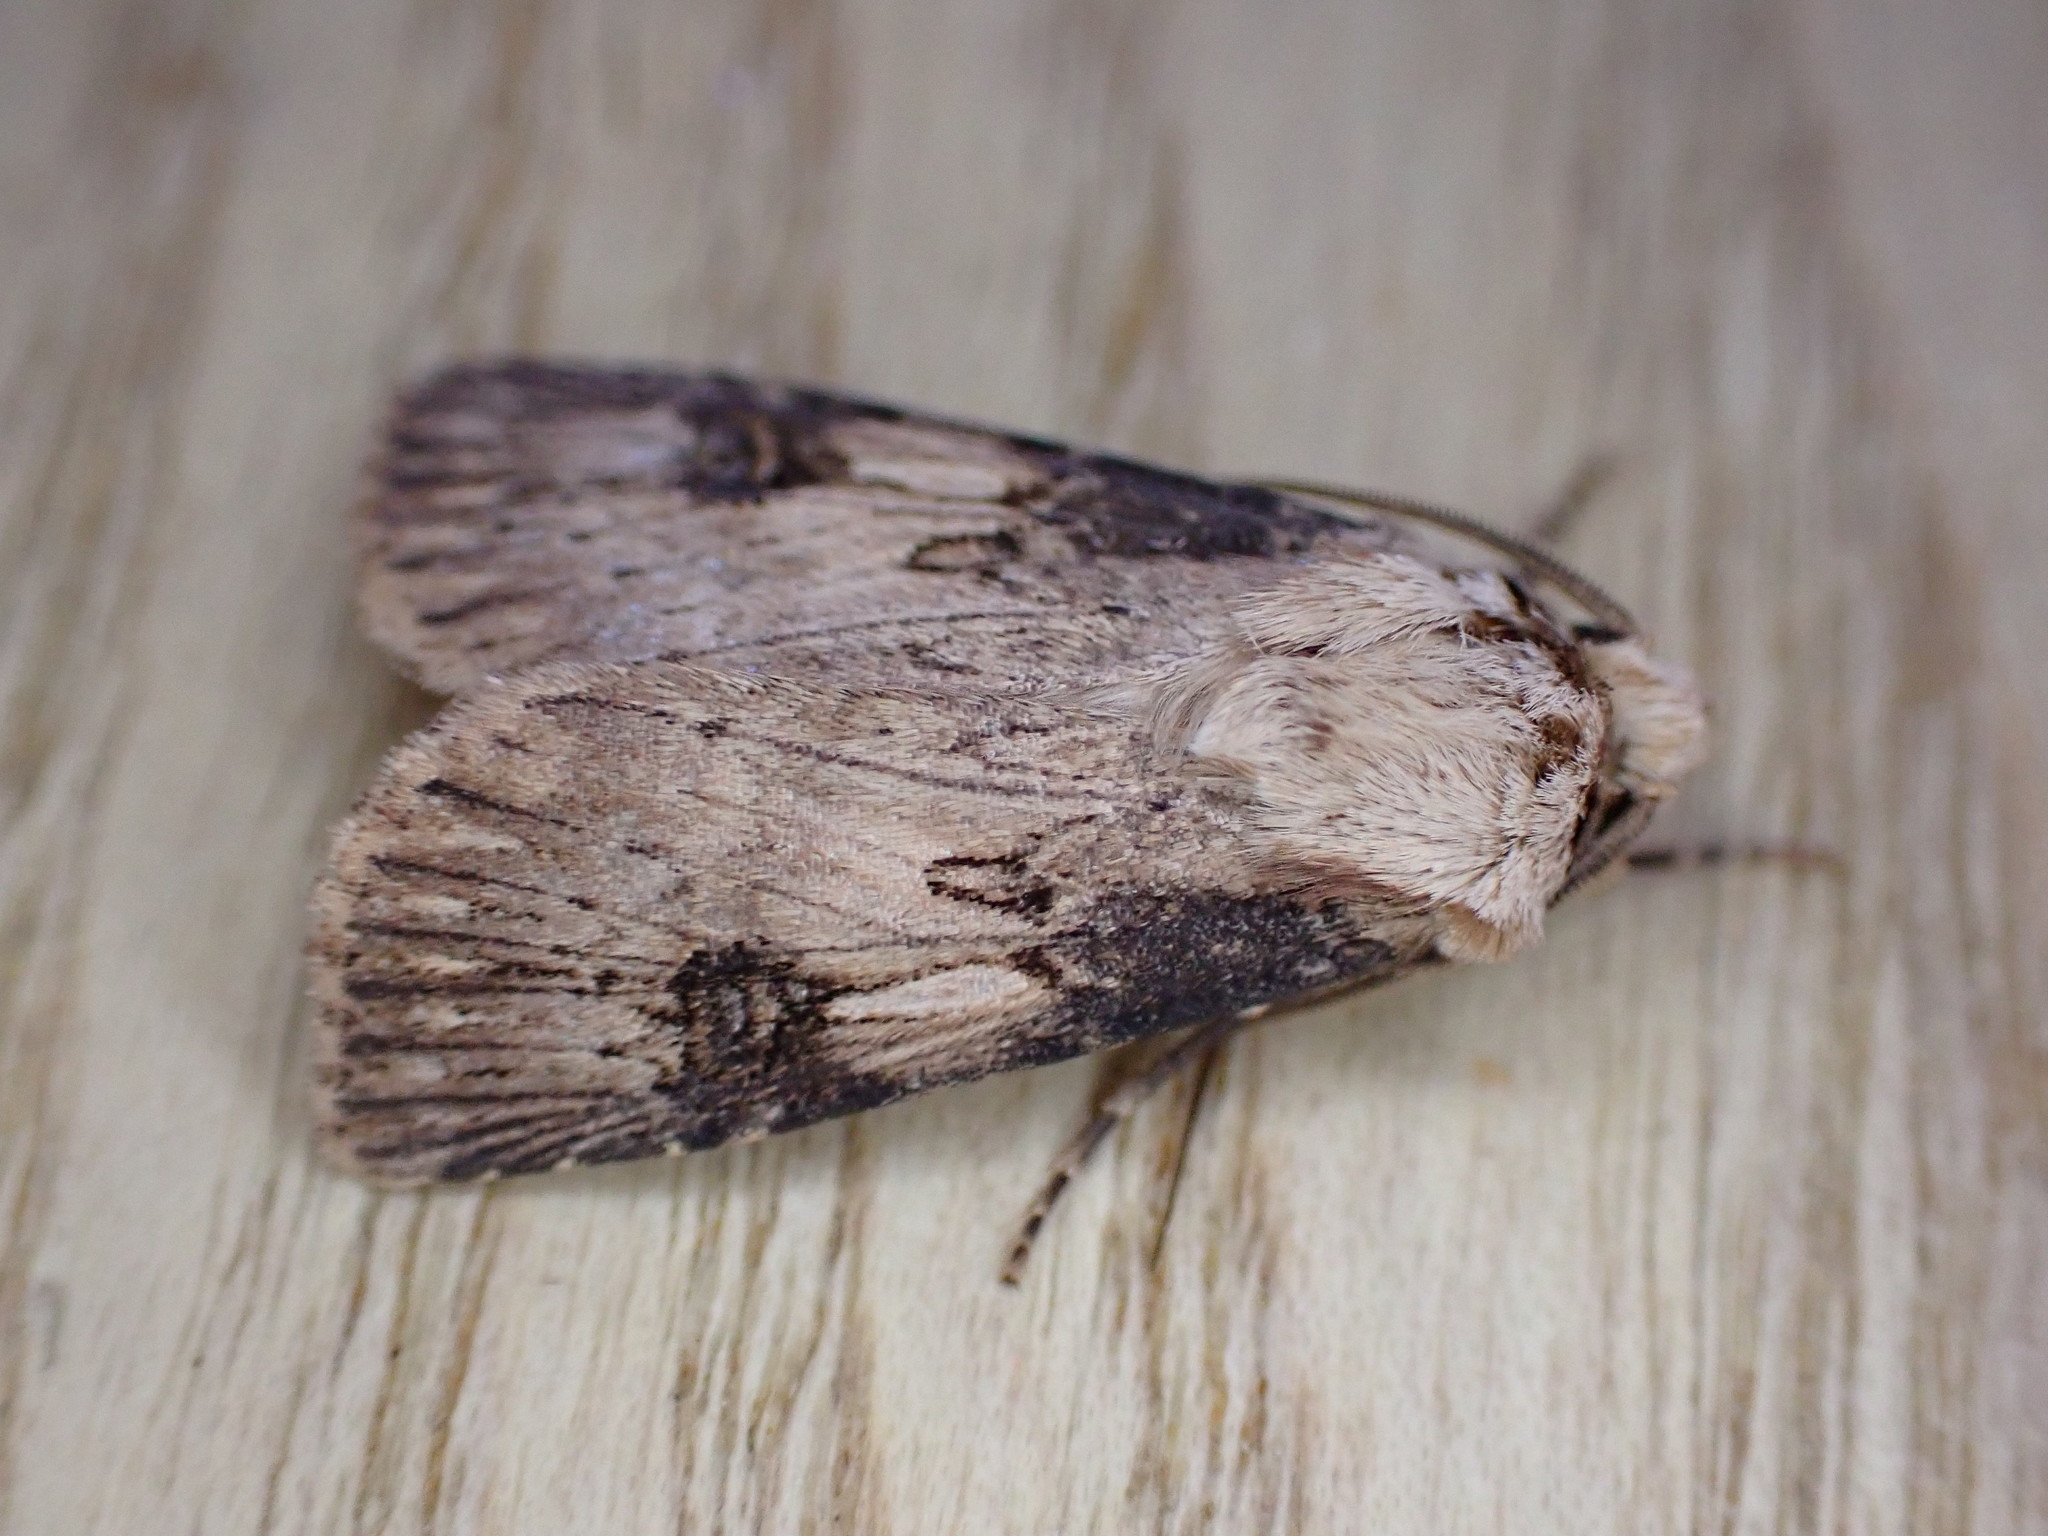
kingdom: Animalia
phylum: Arthropoda
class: Insecta
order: Lepidoptera
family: Noctuidae
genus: Agrotis
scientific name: Agrotis puta
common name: Shuttle-shaped dart
